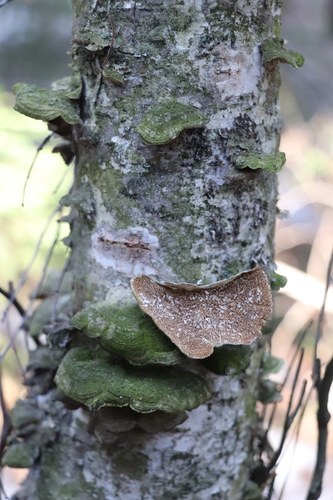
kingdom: Fungi
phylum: Basidiomycota
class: Agaricomycetes
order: Polyporales
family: Cerrenaceae
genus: Cerrena
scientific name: Cerrena unicolor
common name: Mossy maze polypore
